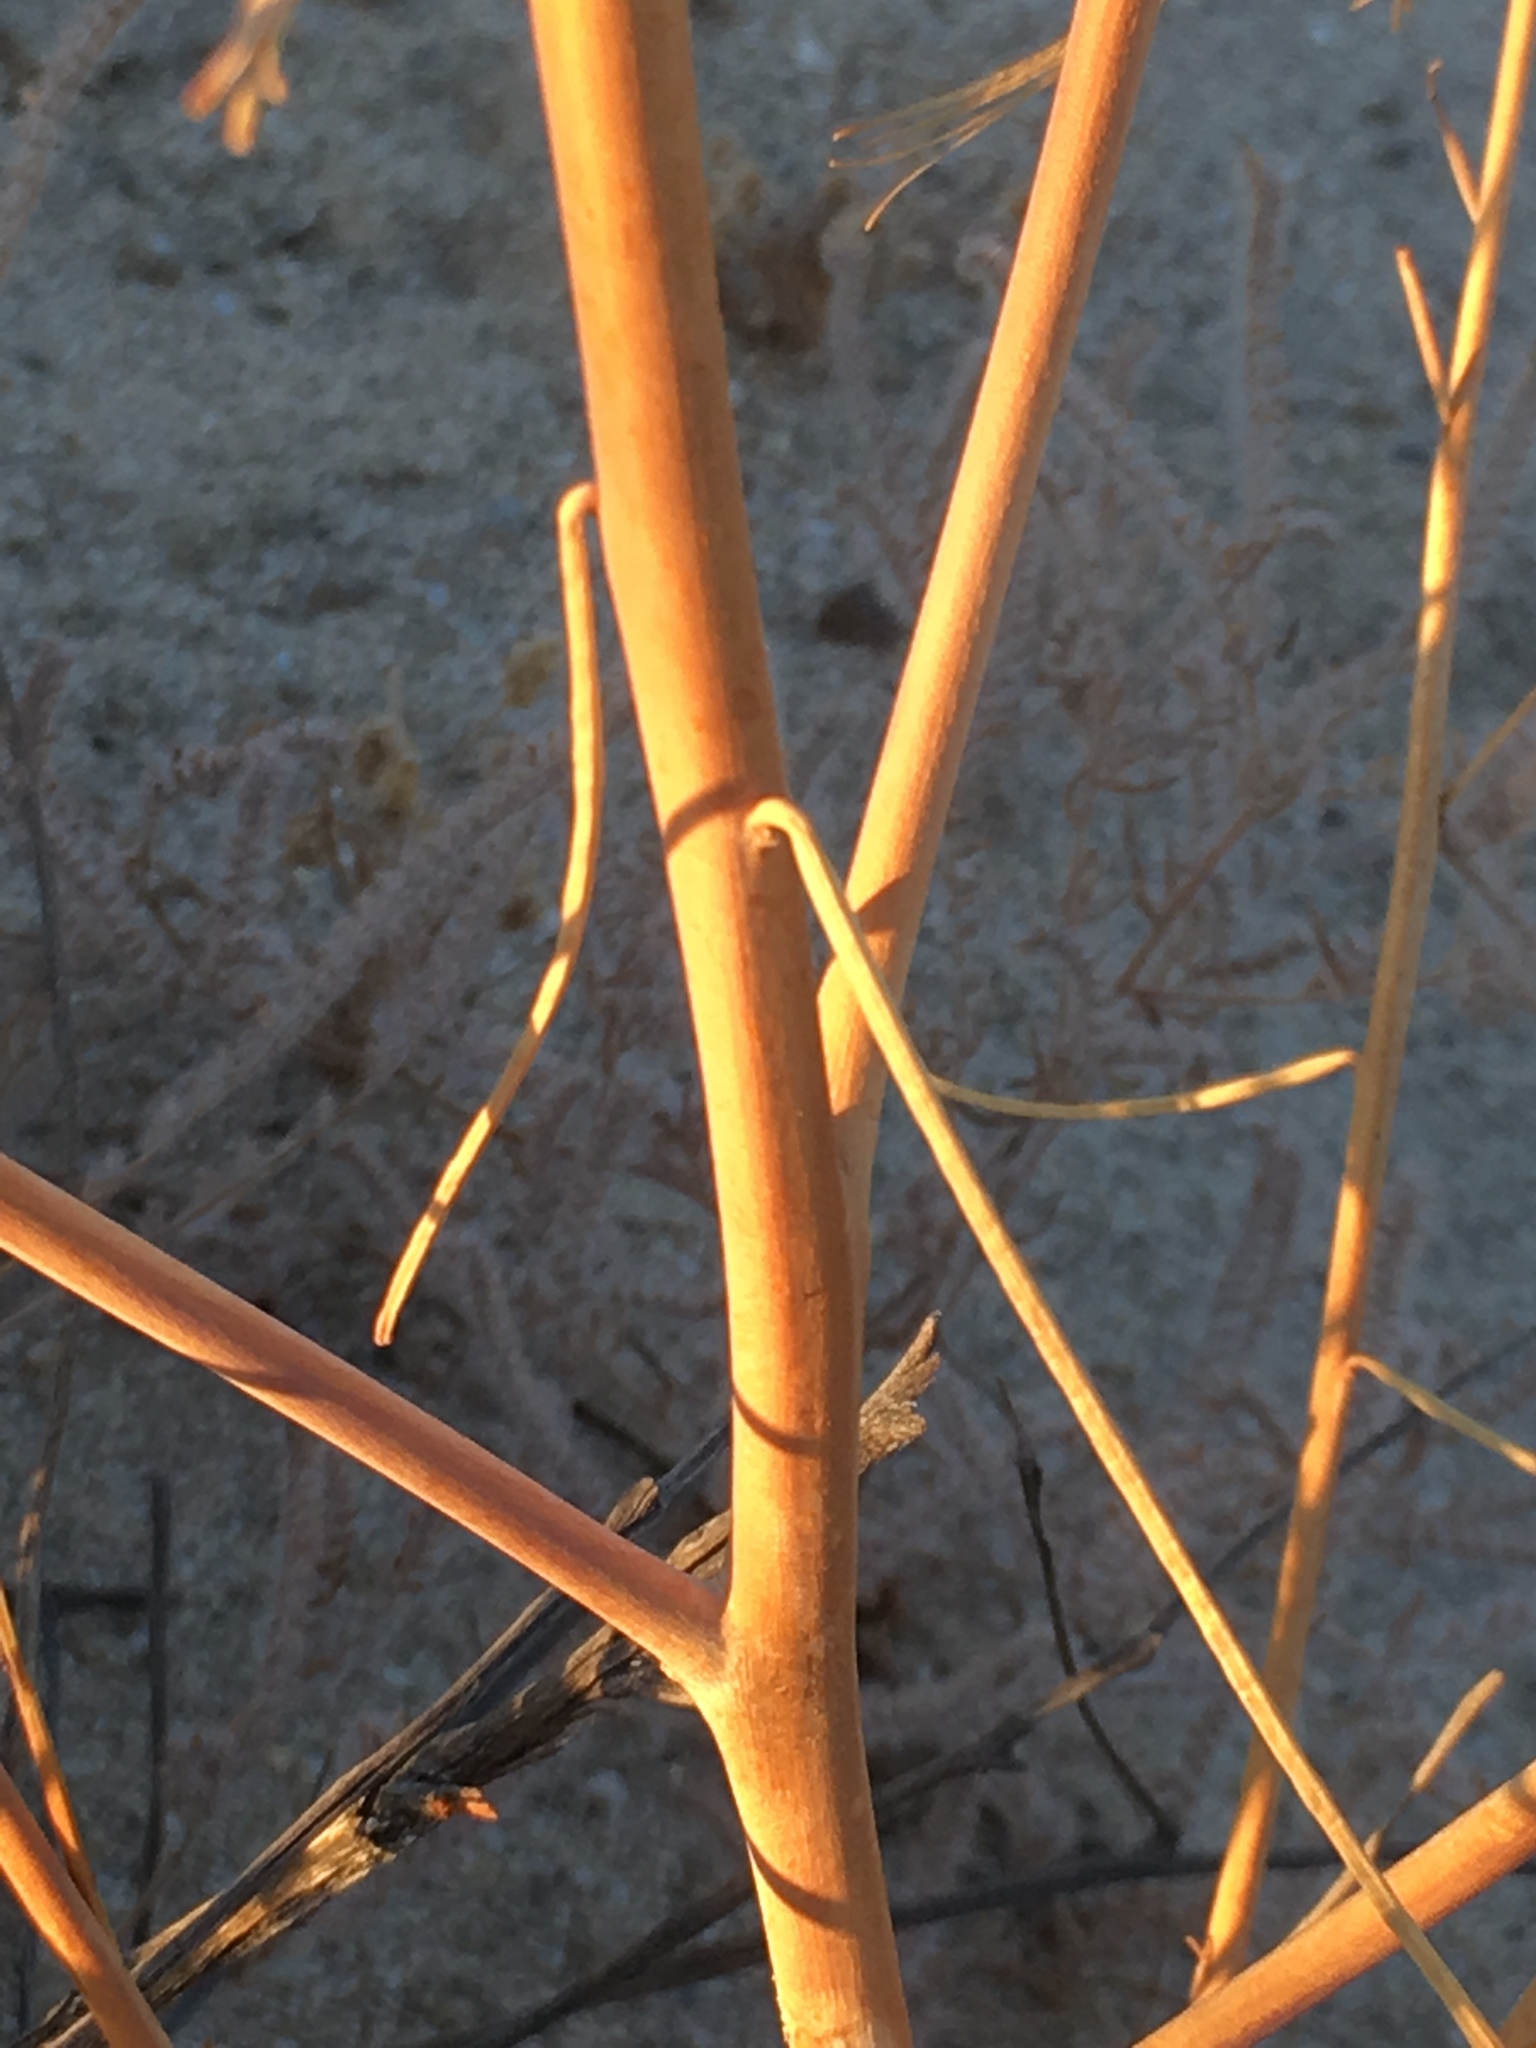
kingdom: Plantae
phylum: Tracheophyta
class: Magnoliopsida
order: Myrtales
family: Onagraceae
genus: Eulobus
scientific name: Eulobus californicus
